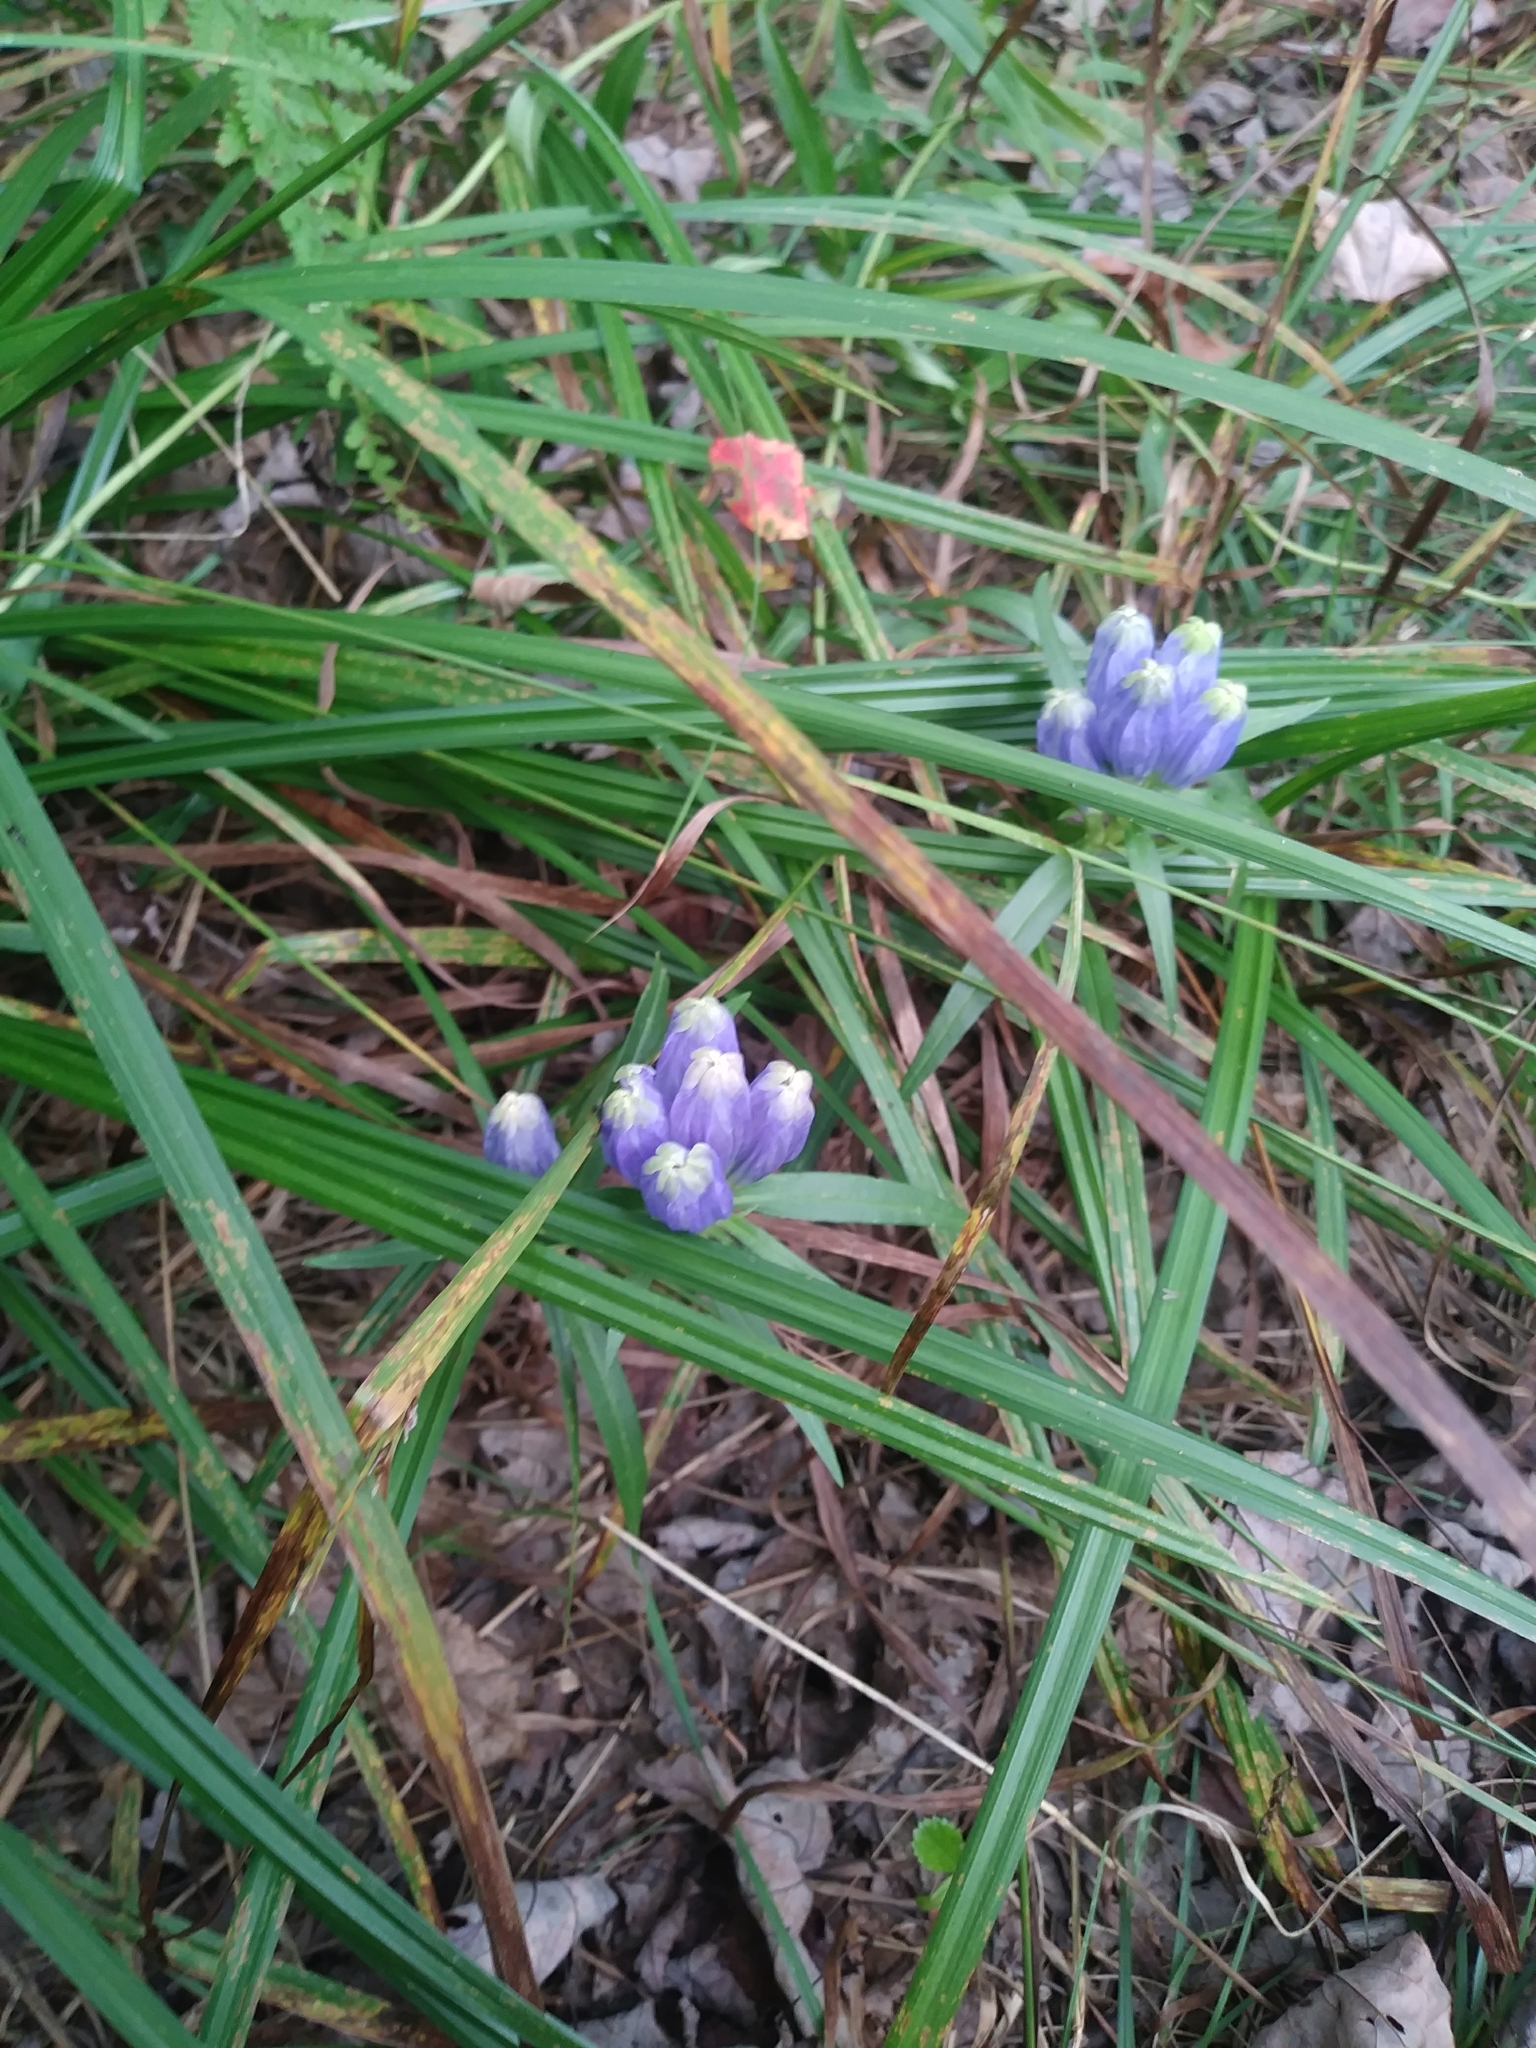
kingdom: Plantae
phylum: Tracheophyta
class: Magnoliopsida
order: Gentianales
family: Gentianaceae
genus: Gentiana
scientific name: Gentiana linearis
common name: Bastard gentian
